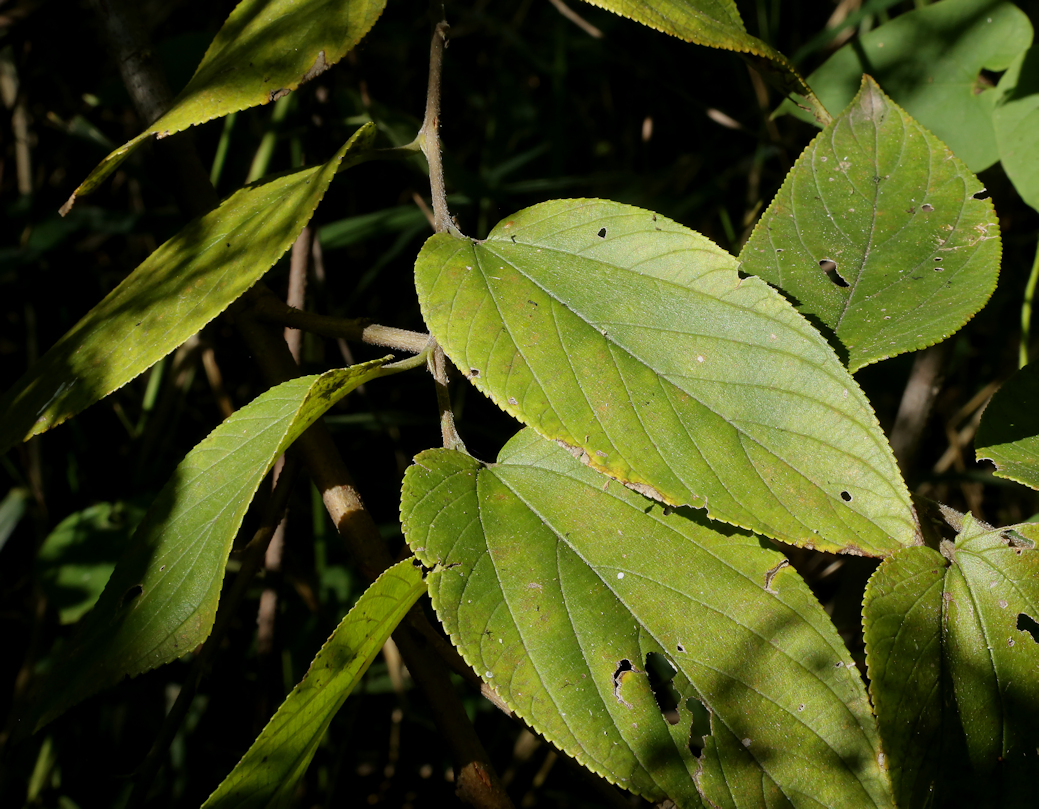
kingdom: Plantae
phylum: Tracheophyta
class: Magnoliopsida
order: Rosales
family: Cannabaceae
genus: Trema
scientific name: Trema orientale
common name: Indian charcoal tree
